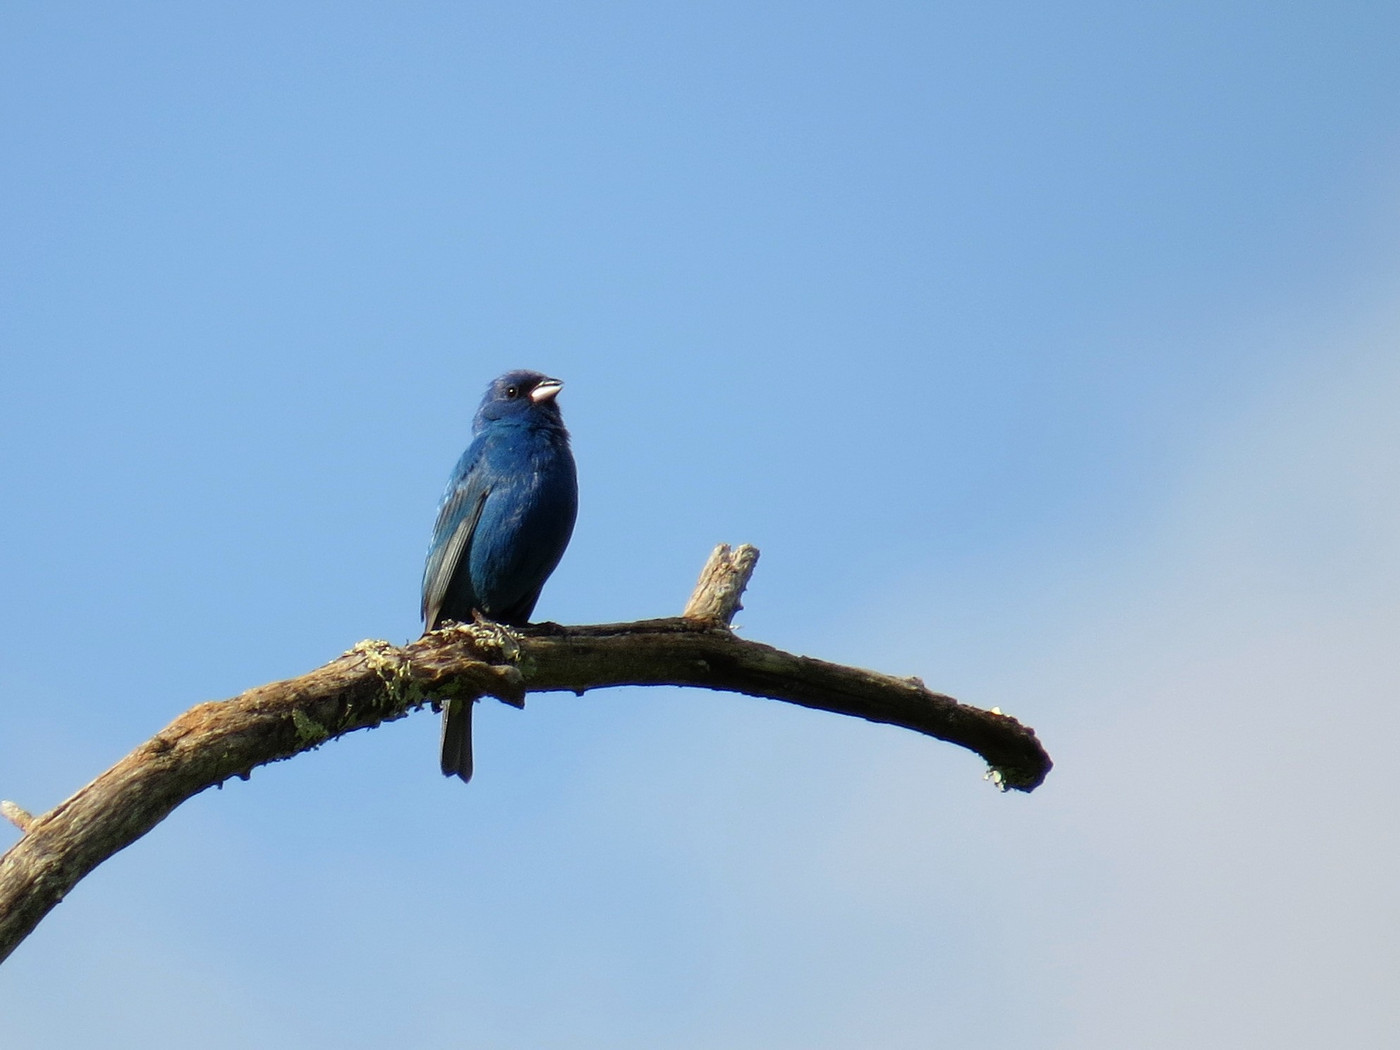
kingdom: Animalia
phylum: Chordata
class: Aves
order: Passeriformes
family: Cardinalidae
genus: Passerina
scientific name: Passerina cyanea
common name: Indigo bunting
